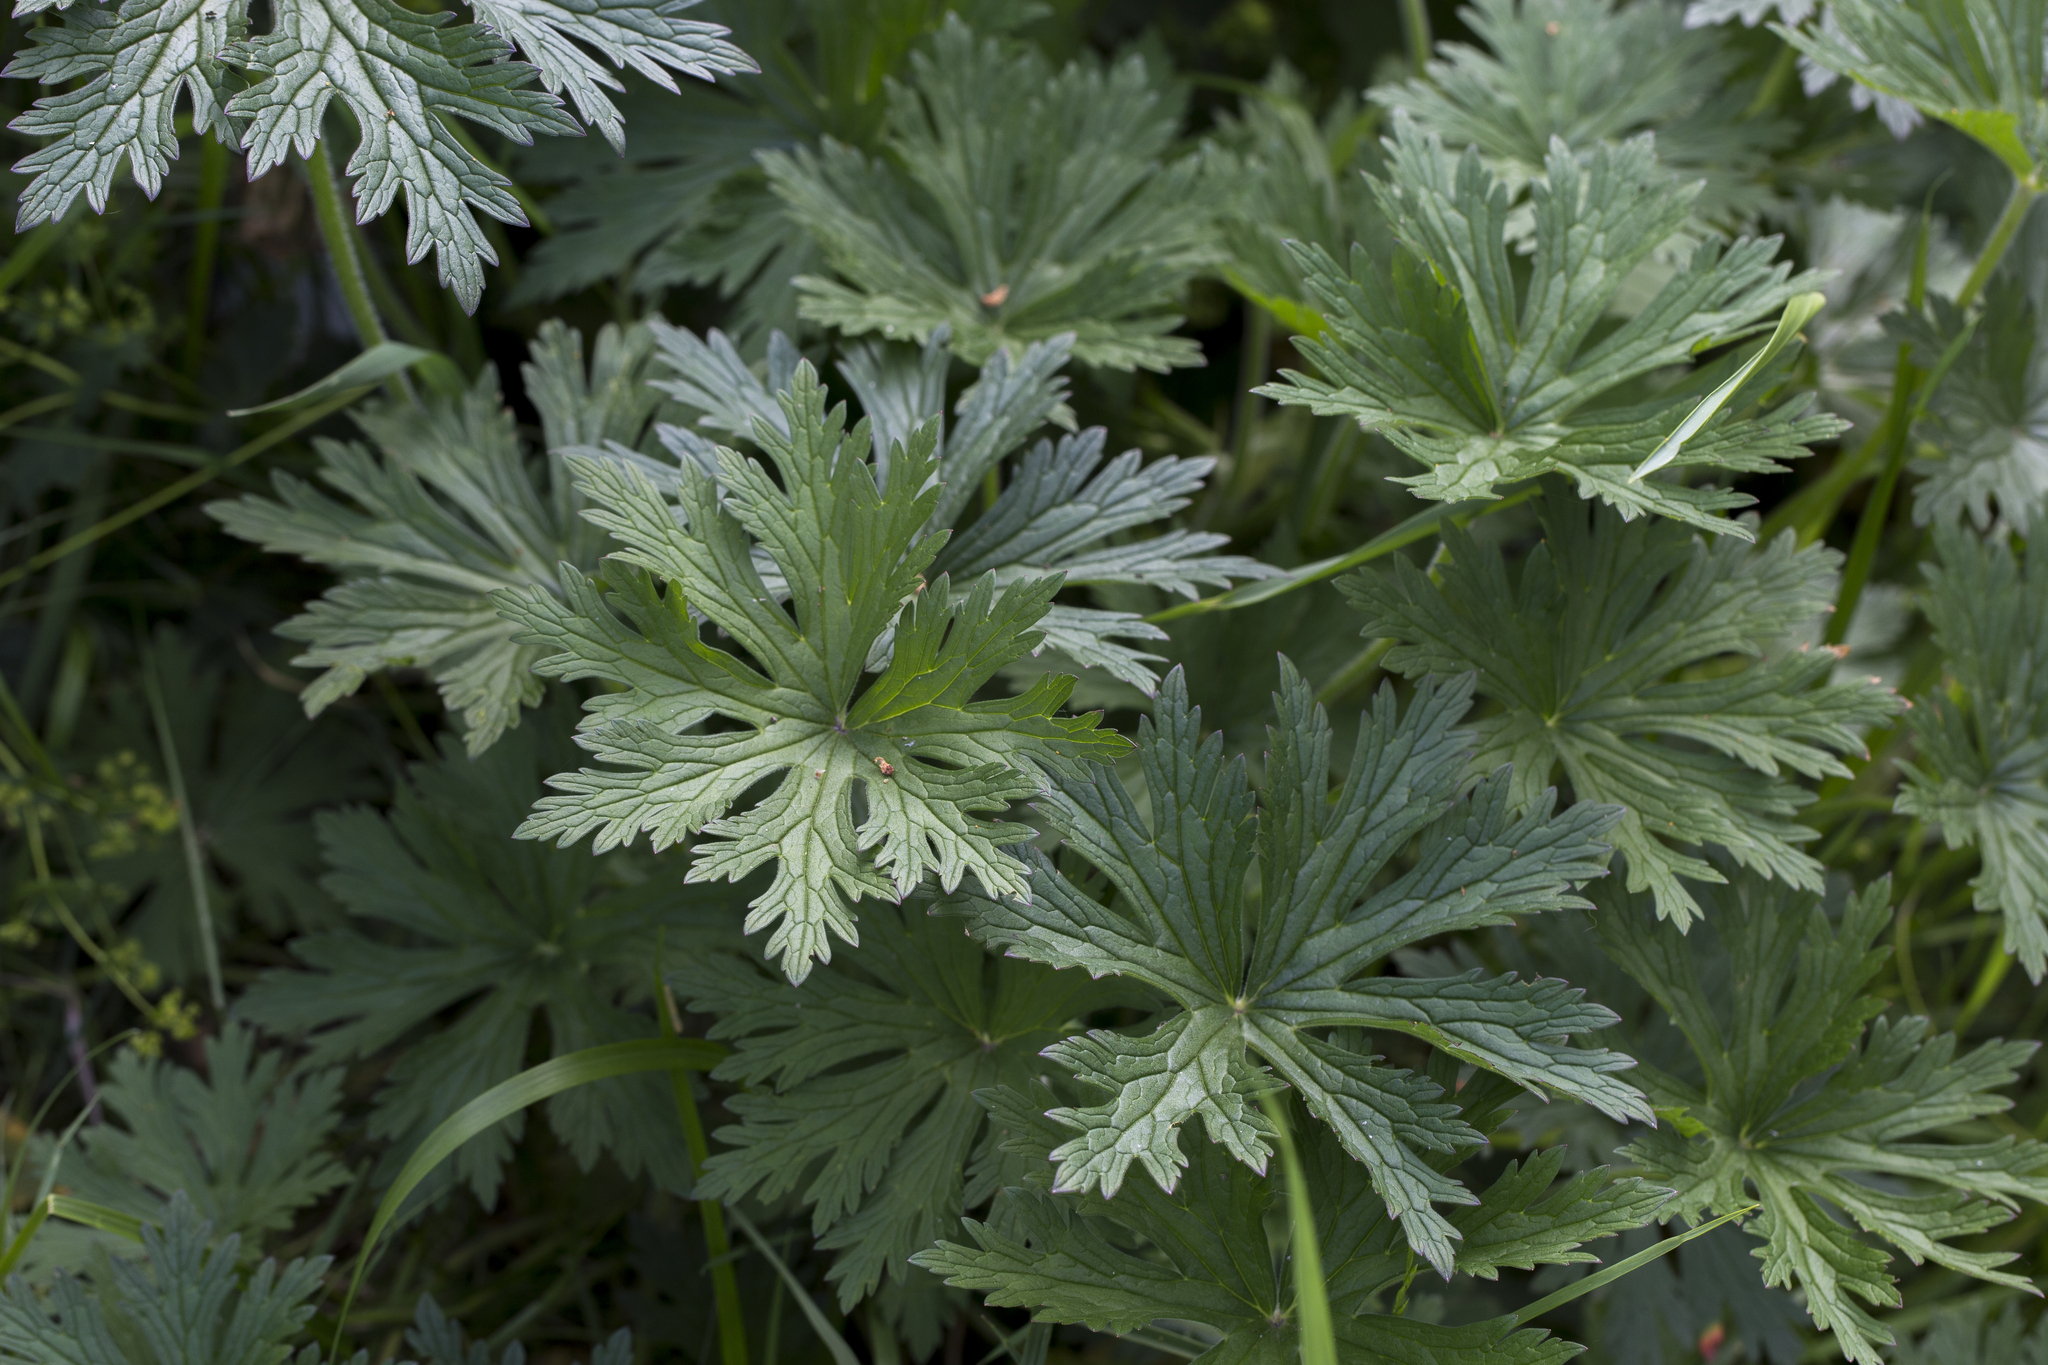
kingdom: Plantae
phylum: Tracheophyta
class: Magnoliopsida
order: Geraniales
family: Geraniaceae
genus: Geranium
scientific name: Geranium pratense
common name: Meadow crane's-bill
